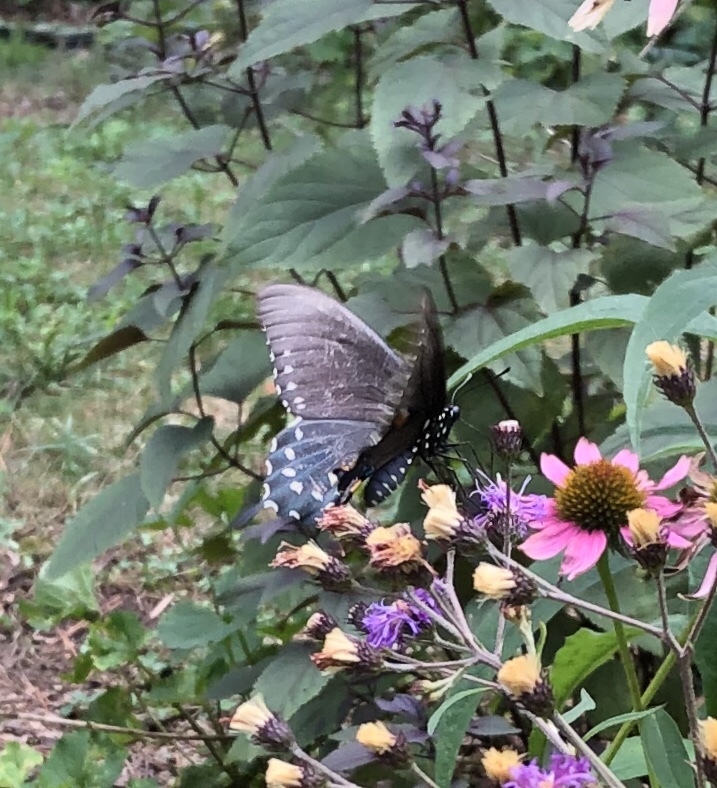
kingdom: Animalia
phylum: Arthropoda
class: Insecta
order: Lepidoptera
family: Papilionidae
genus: Battus
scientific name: Battus philenor
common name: Pipevine swallowtail
